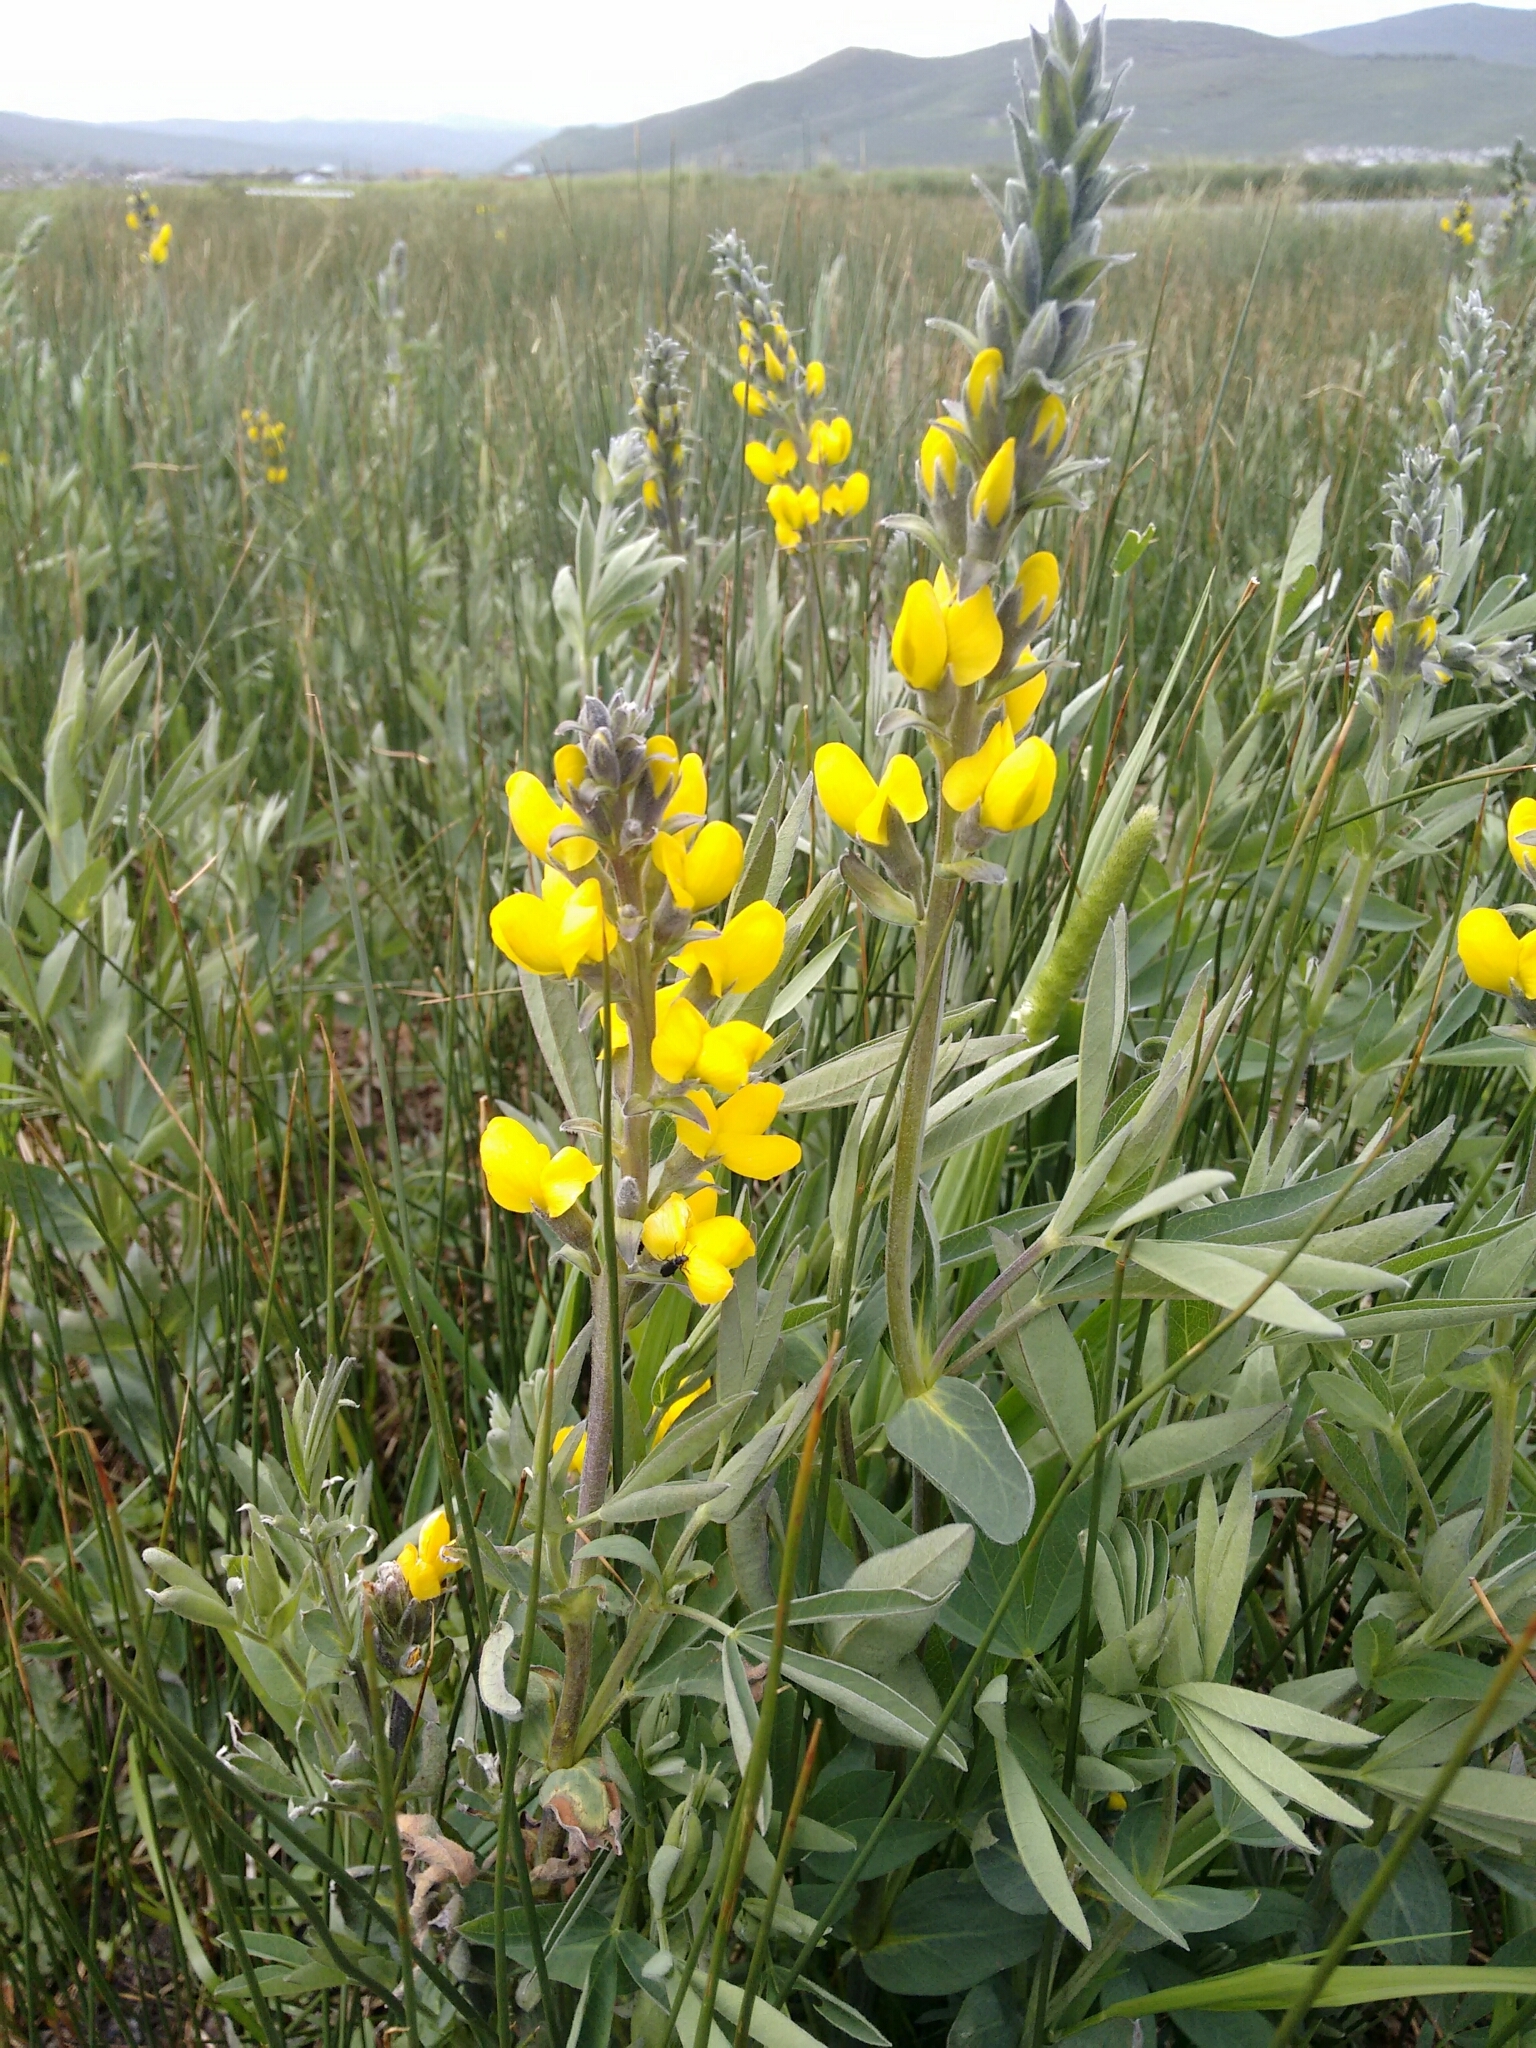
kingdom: Plantae
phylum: Tracheophyta
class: Magnoliopsida
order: Fabales
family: Fabaceae
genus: Thermopsis
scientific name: Thermopsis montana
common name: False lupin
